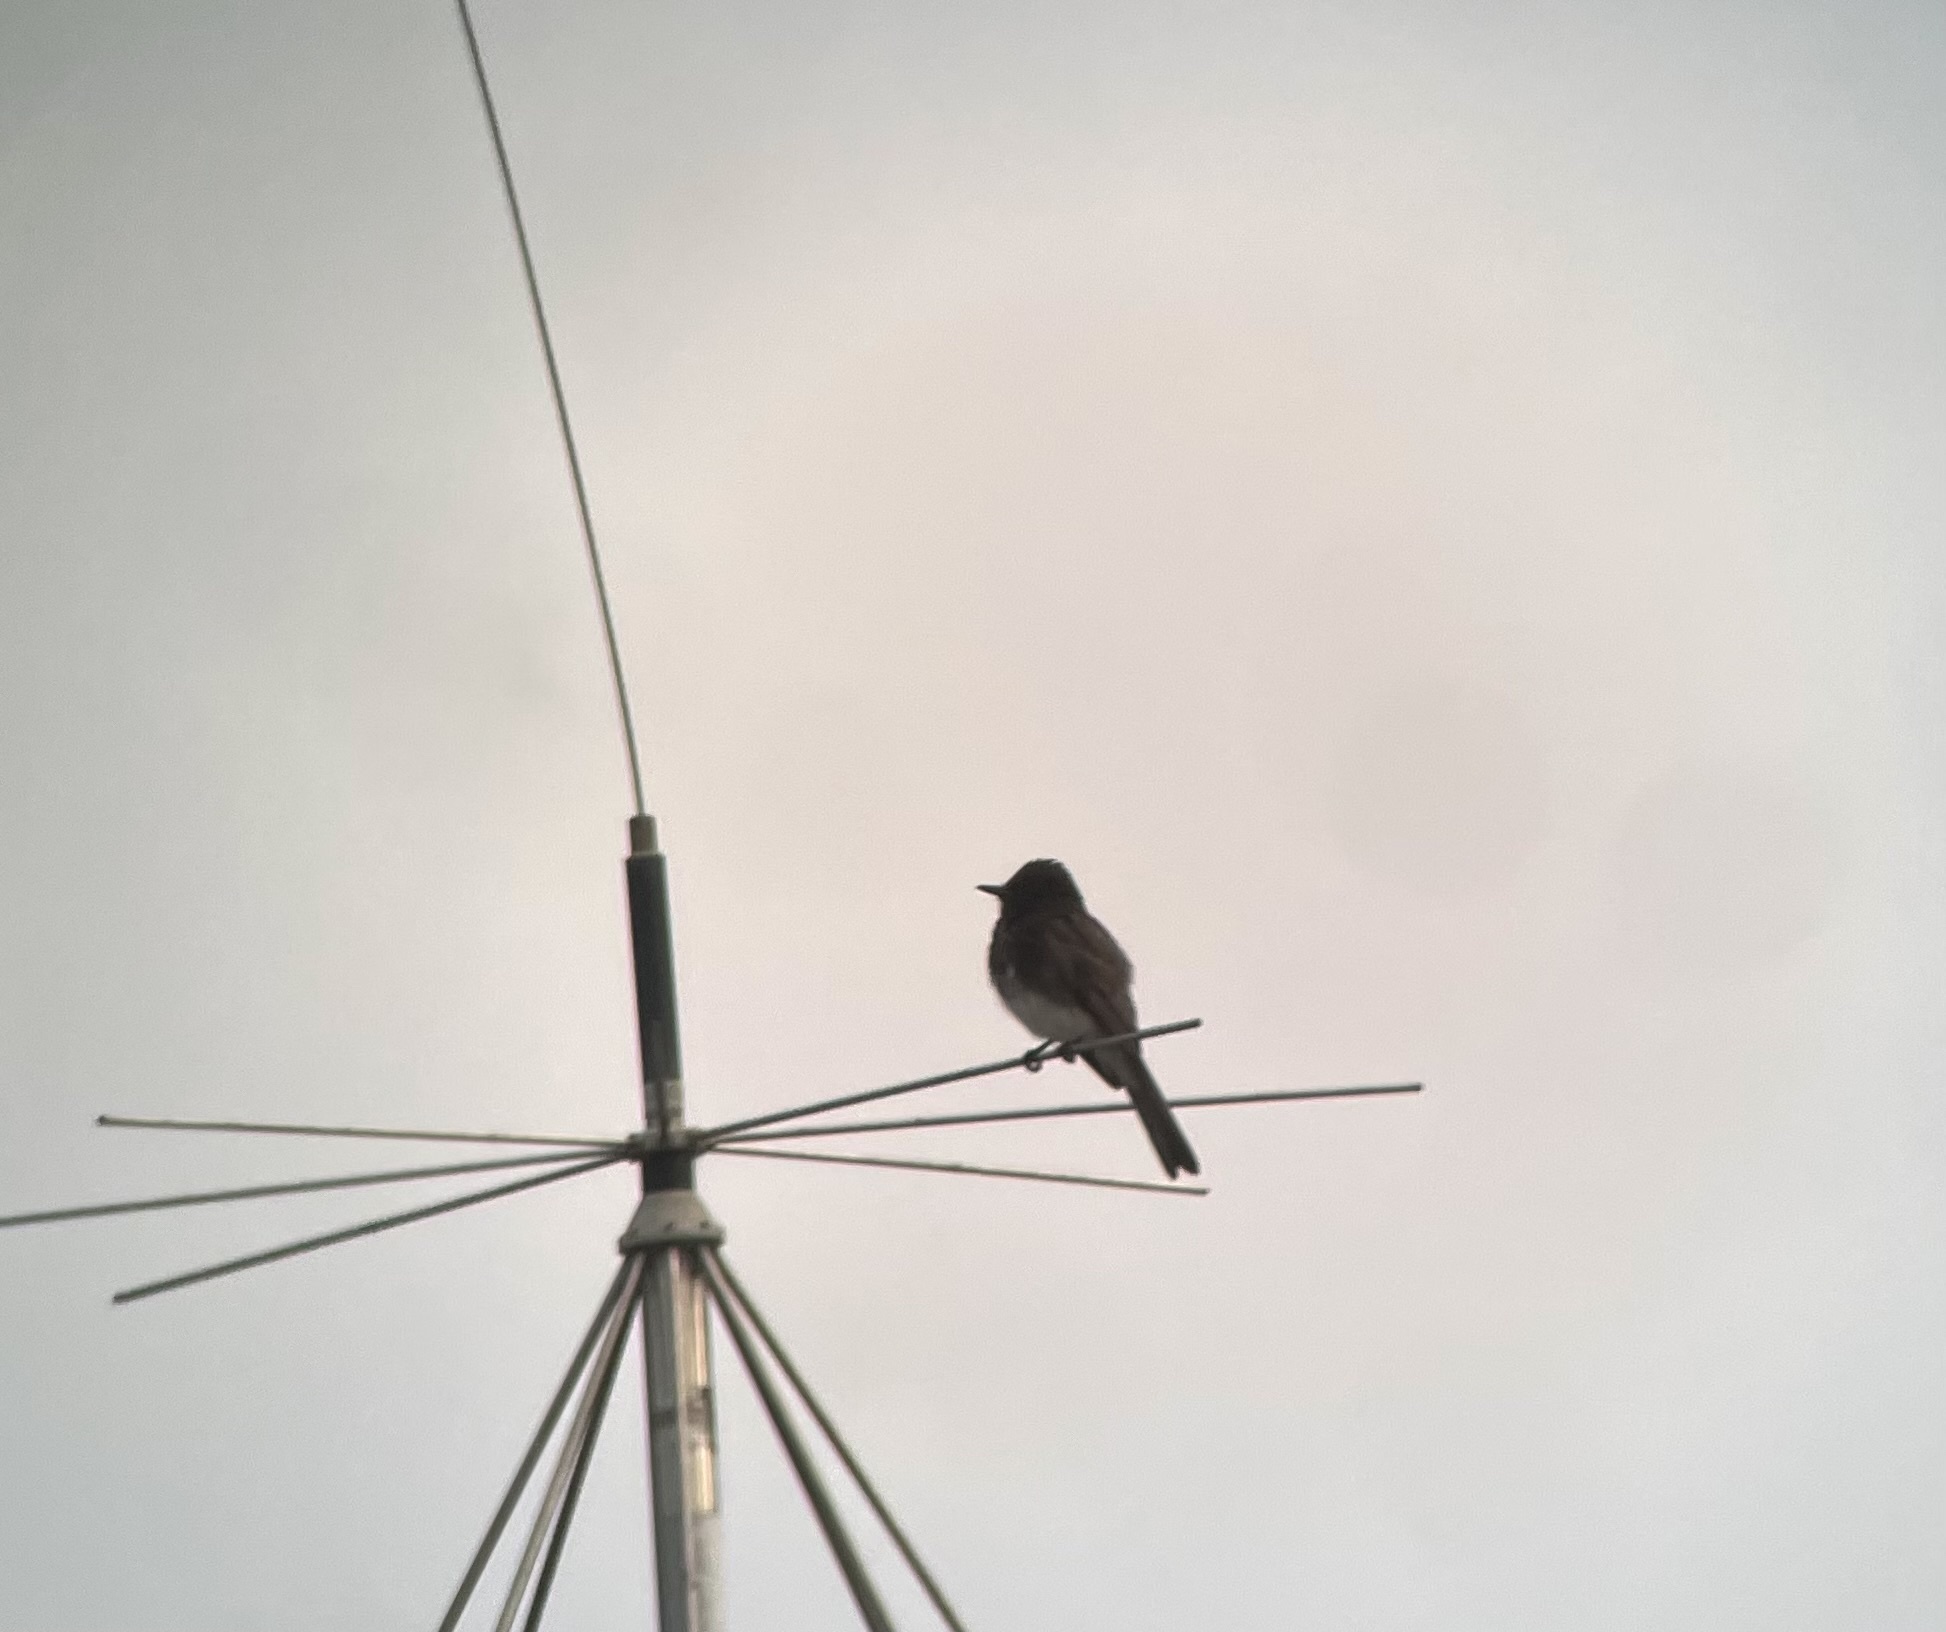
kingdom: Animalia
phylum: Chordata
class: Aves
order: Passeriformes
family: Tyrannidae
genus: Sayornis
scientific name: Sayornis nigricans
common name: Black phoebe
